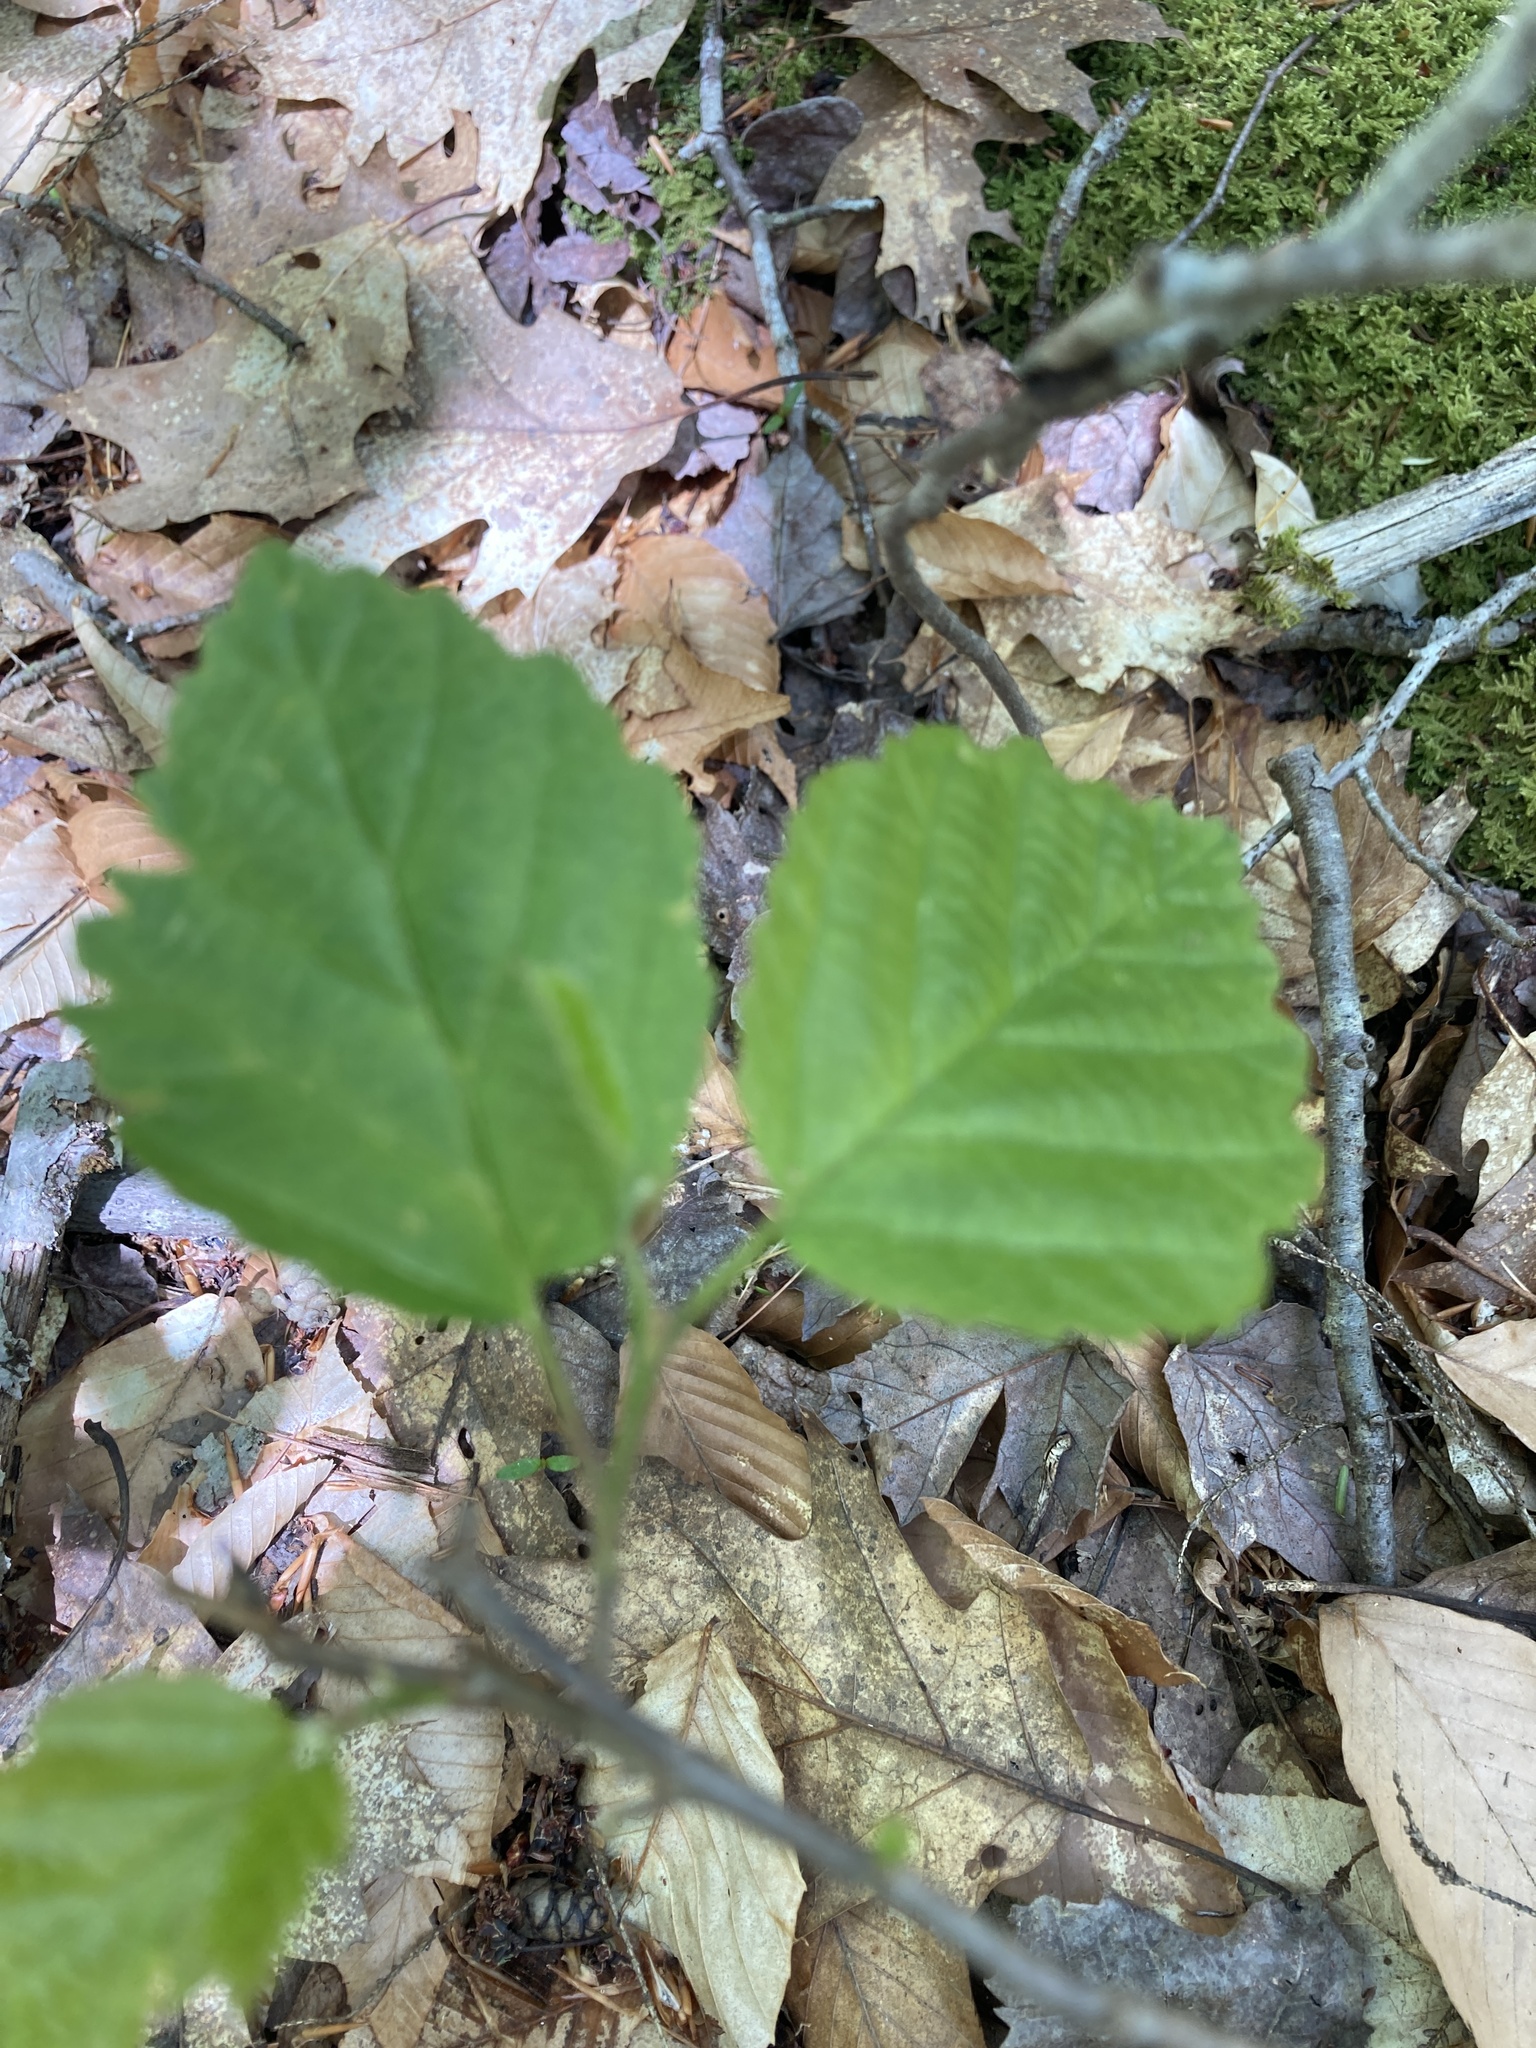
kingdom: Plantae
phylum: Tracheophyta
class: Magnoliopsida
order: Saxifragales
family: Hamamelidaceae
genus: Hamamelis
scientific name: Hamamelis virginiana
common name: Witch-hazel
